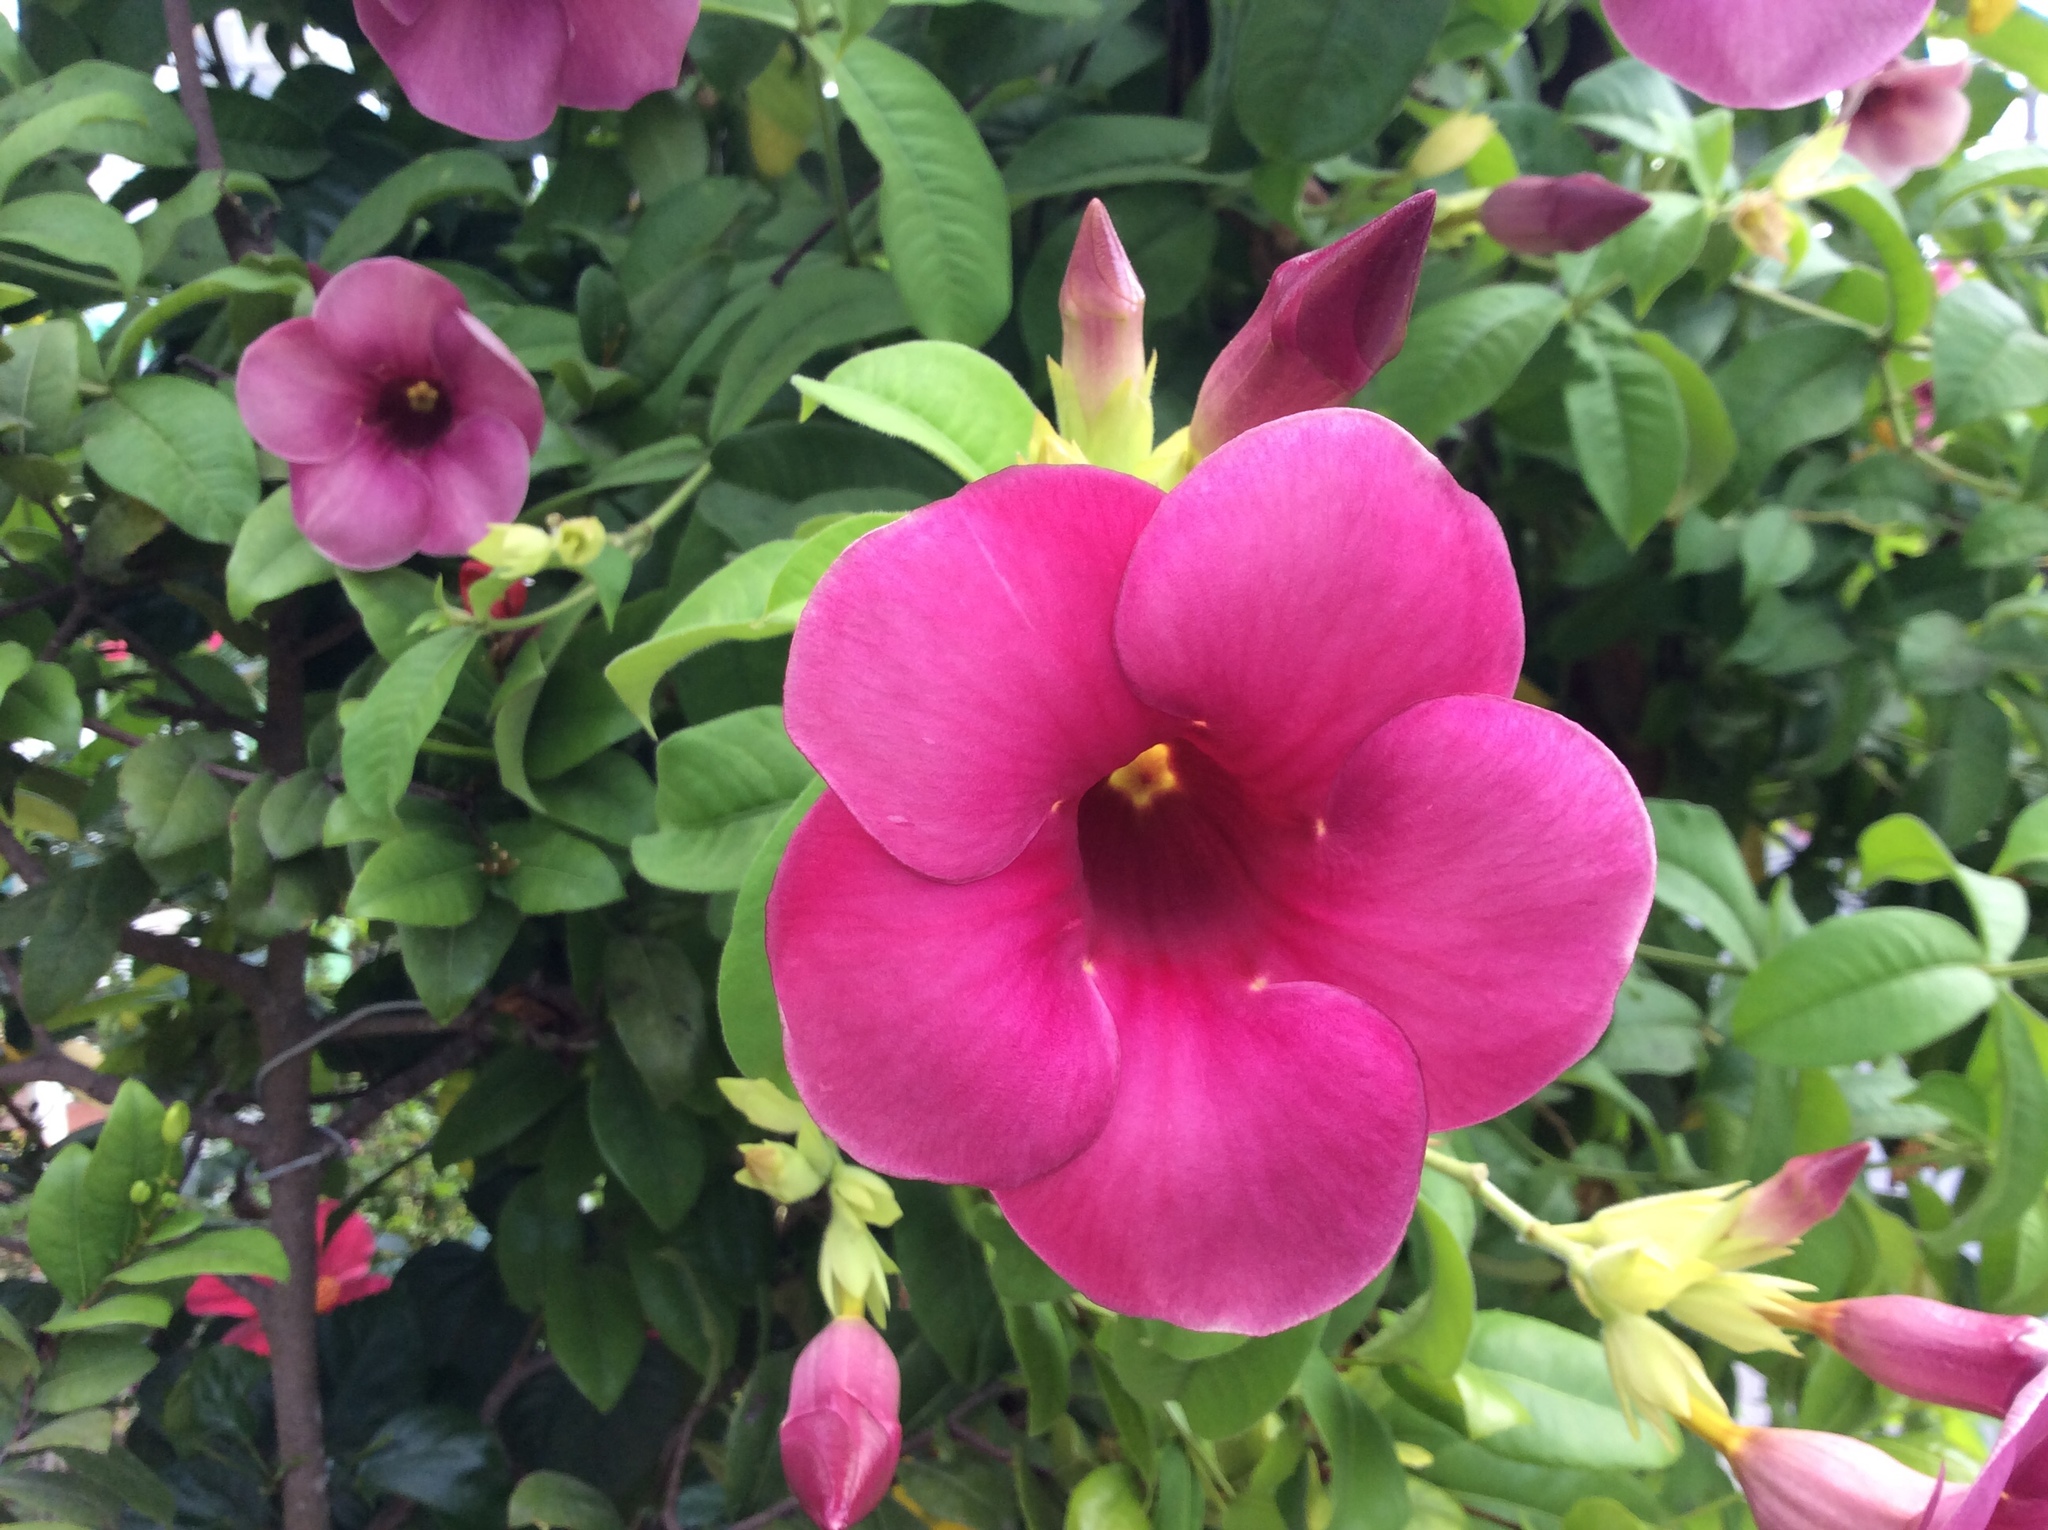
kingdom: Plantae
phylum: Tracheophyta
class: Magnoliopsida
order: Gentianales
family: Apocynaceae
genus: Allamanda
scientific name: Allamanda blanchetii
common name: Purple allamanda
